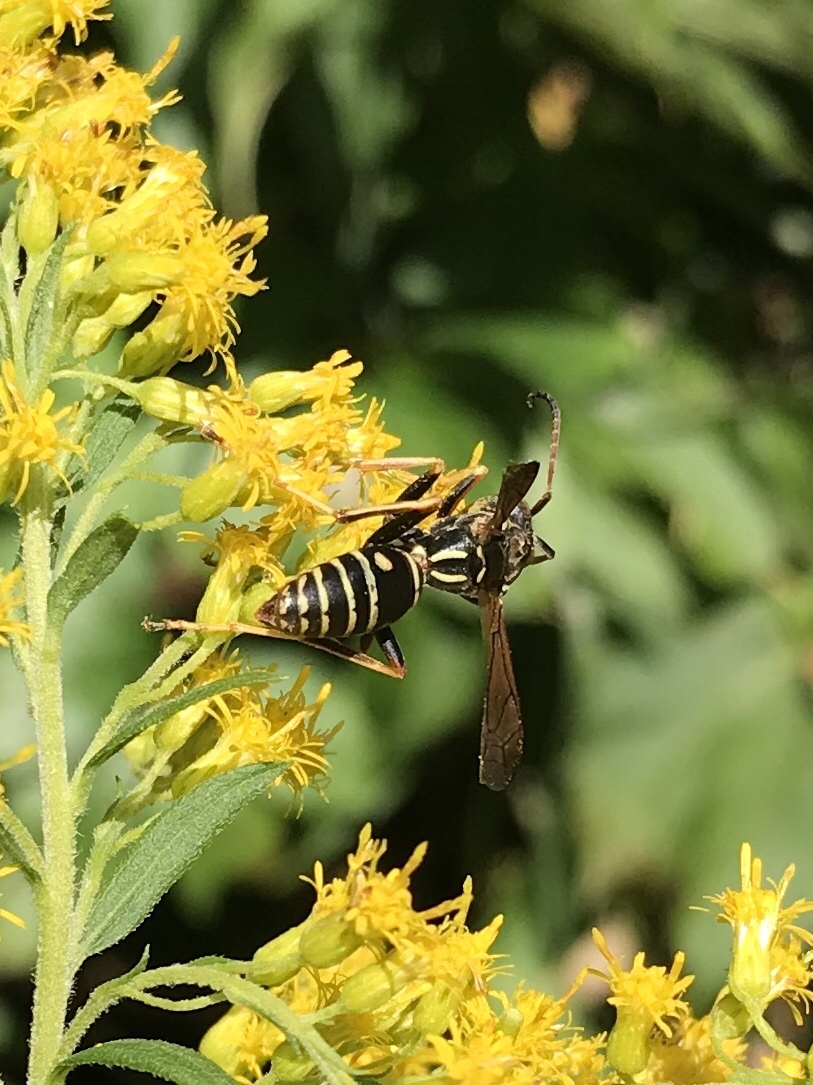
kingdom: Animalia
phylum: Arthropoda
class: Insecta
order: Hymenoptera
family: Eumenidae
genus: Polistes
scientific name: Polistes fuscatus
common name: Dark paper wasp
